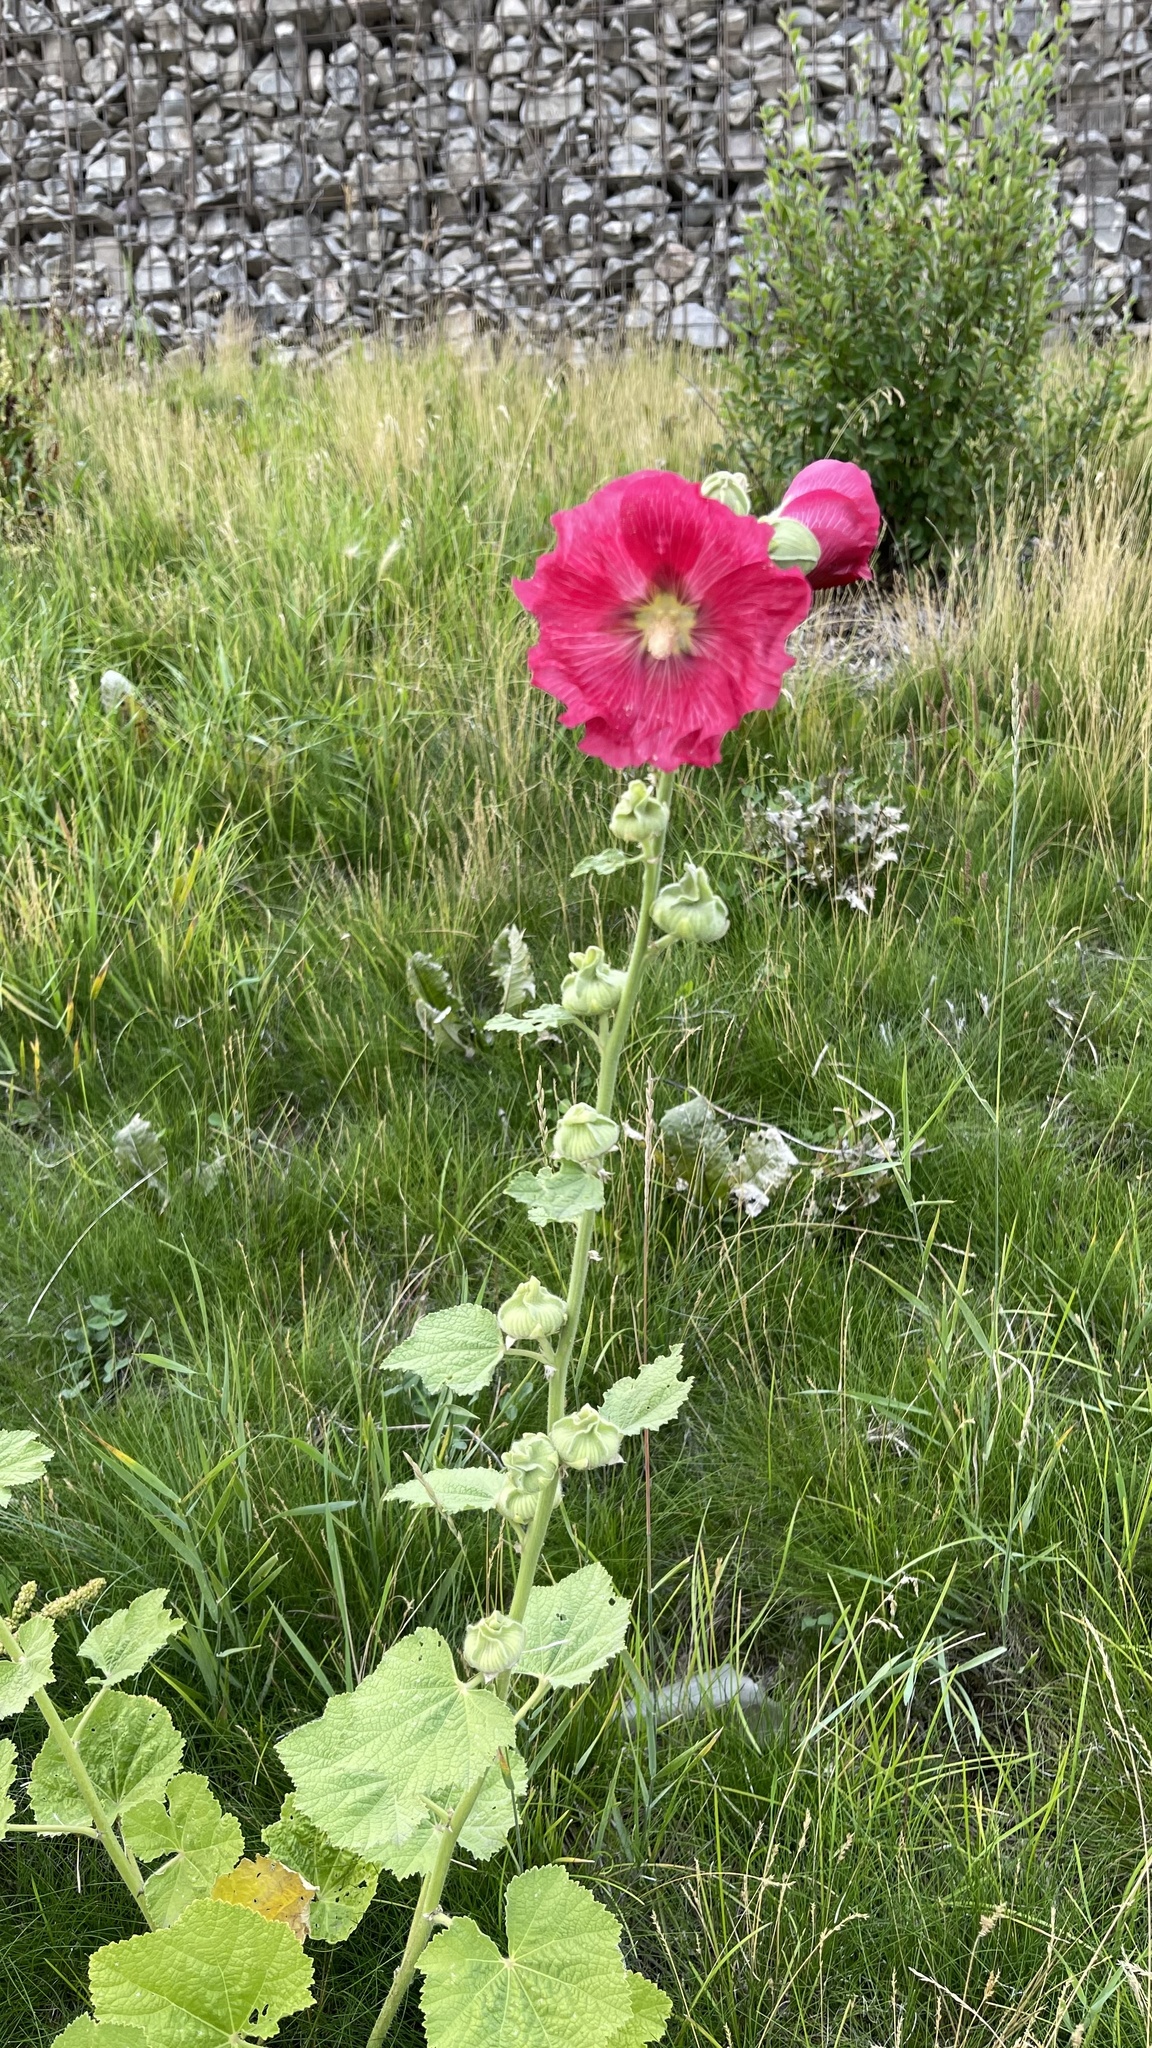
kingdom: Plantae
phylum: Tracheophyta
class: Magnoliopsida
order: Malvales
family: Malvaceae
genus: Alcea
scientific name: Alcea rosea
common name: Hollyhock
